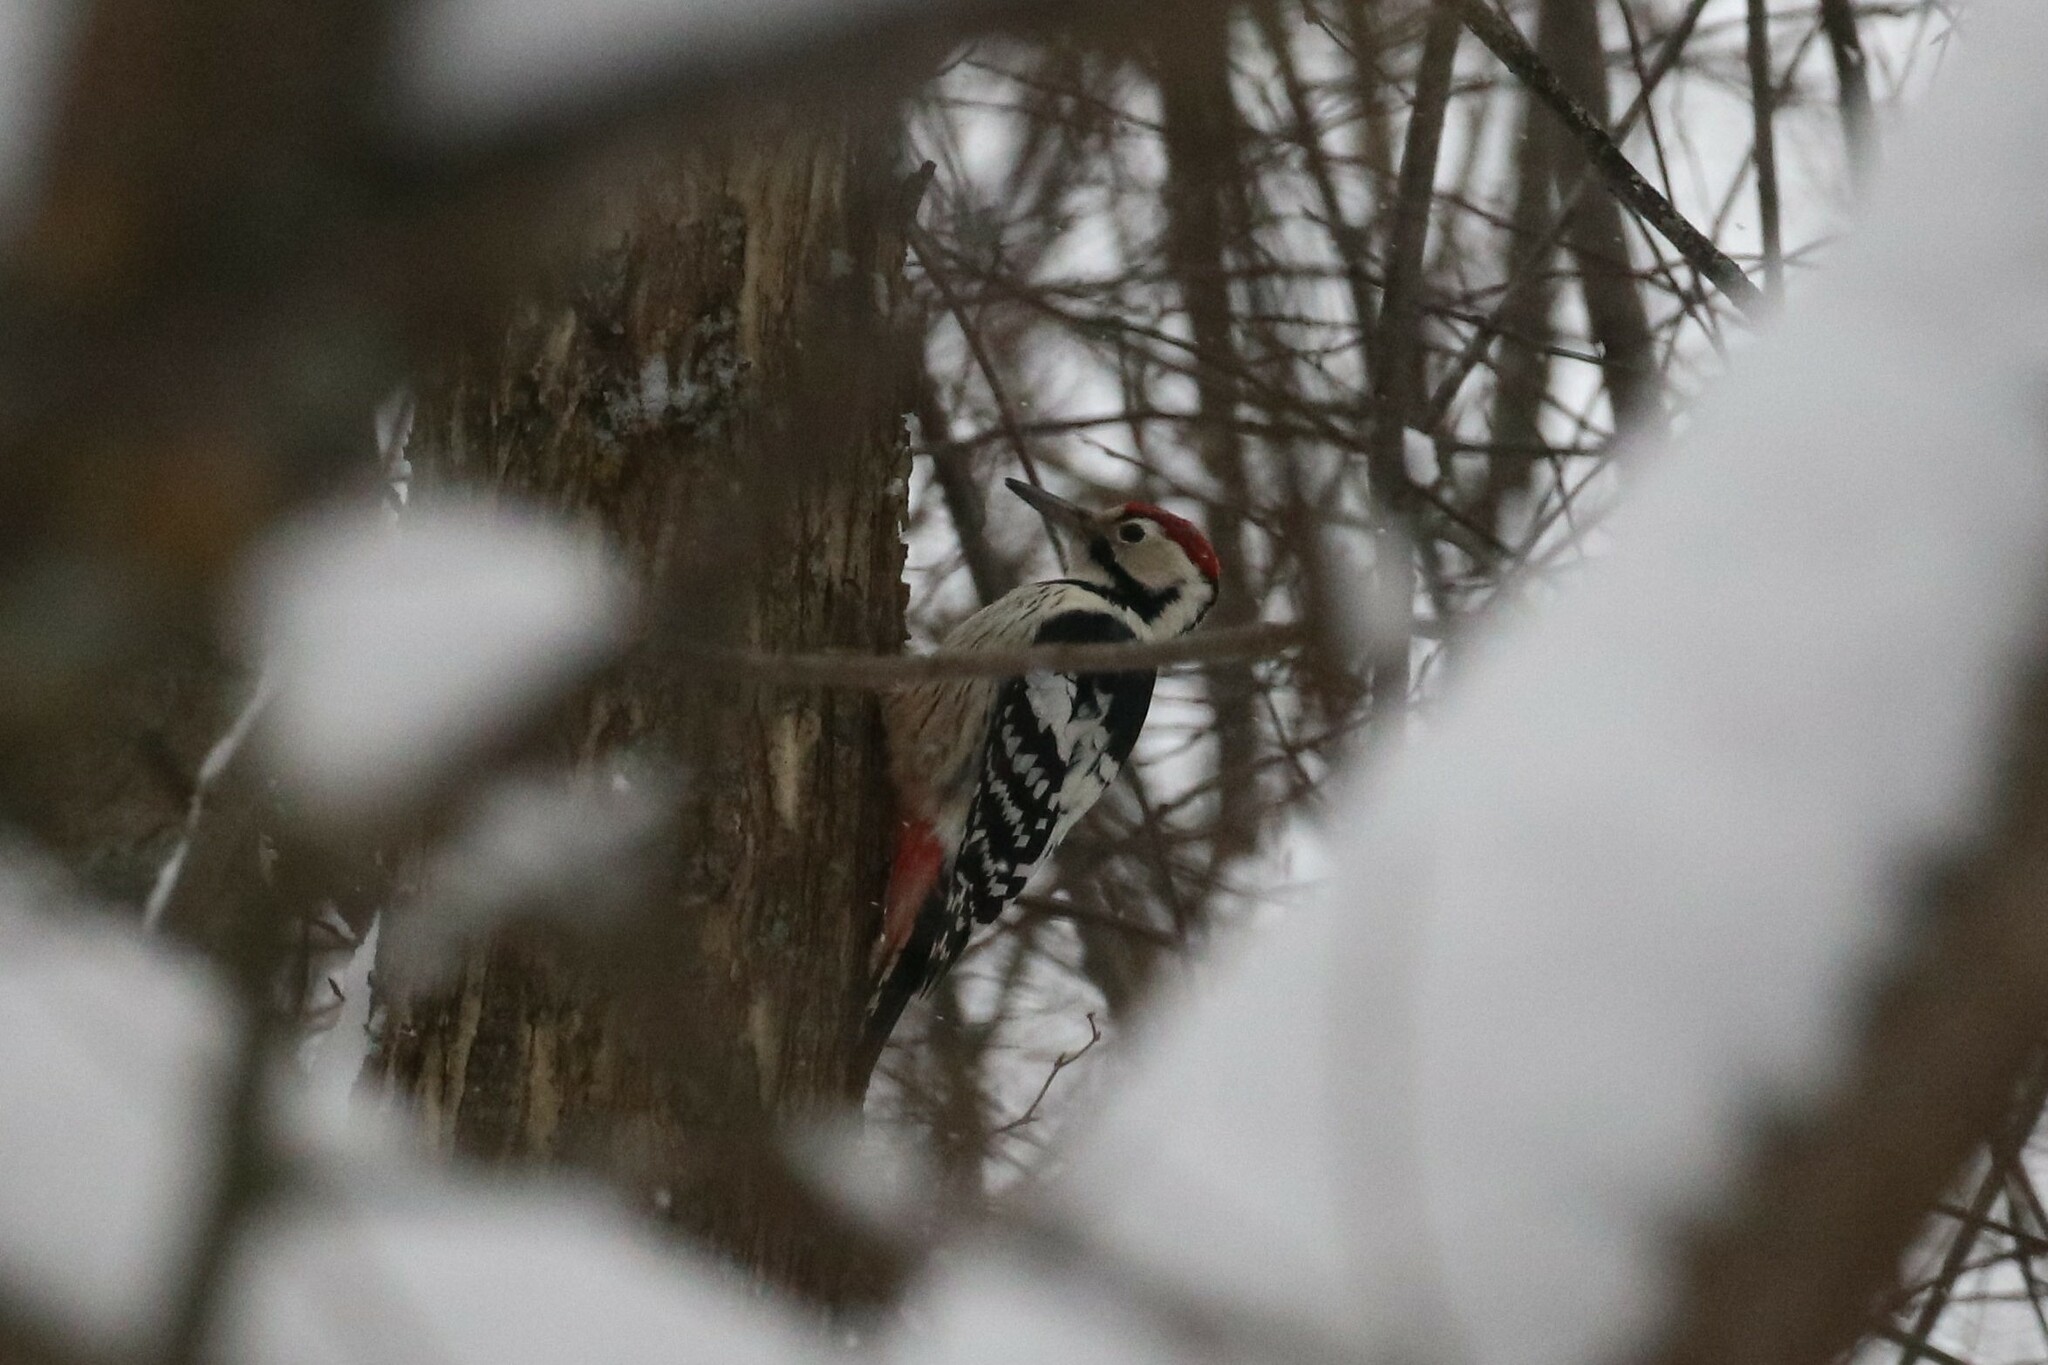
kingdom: Animalia
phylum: Chordata
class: Aves
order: Piciformes
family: Picidae
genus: Dendrocopos
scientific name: Dendrocopos leucotos
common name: White-backed woodpecker
